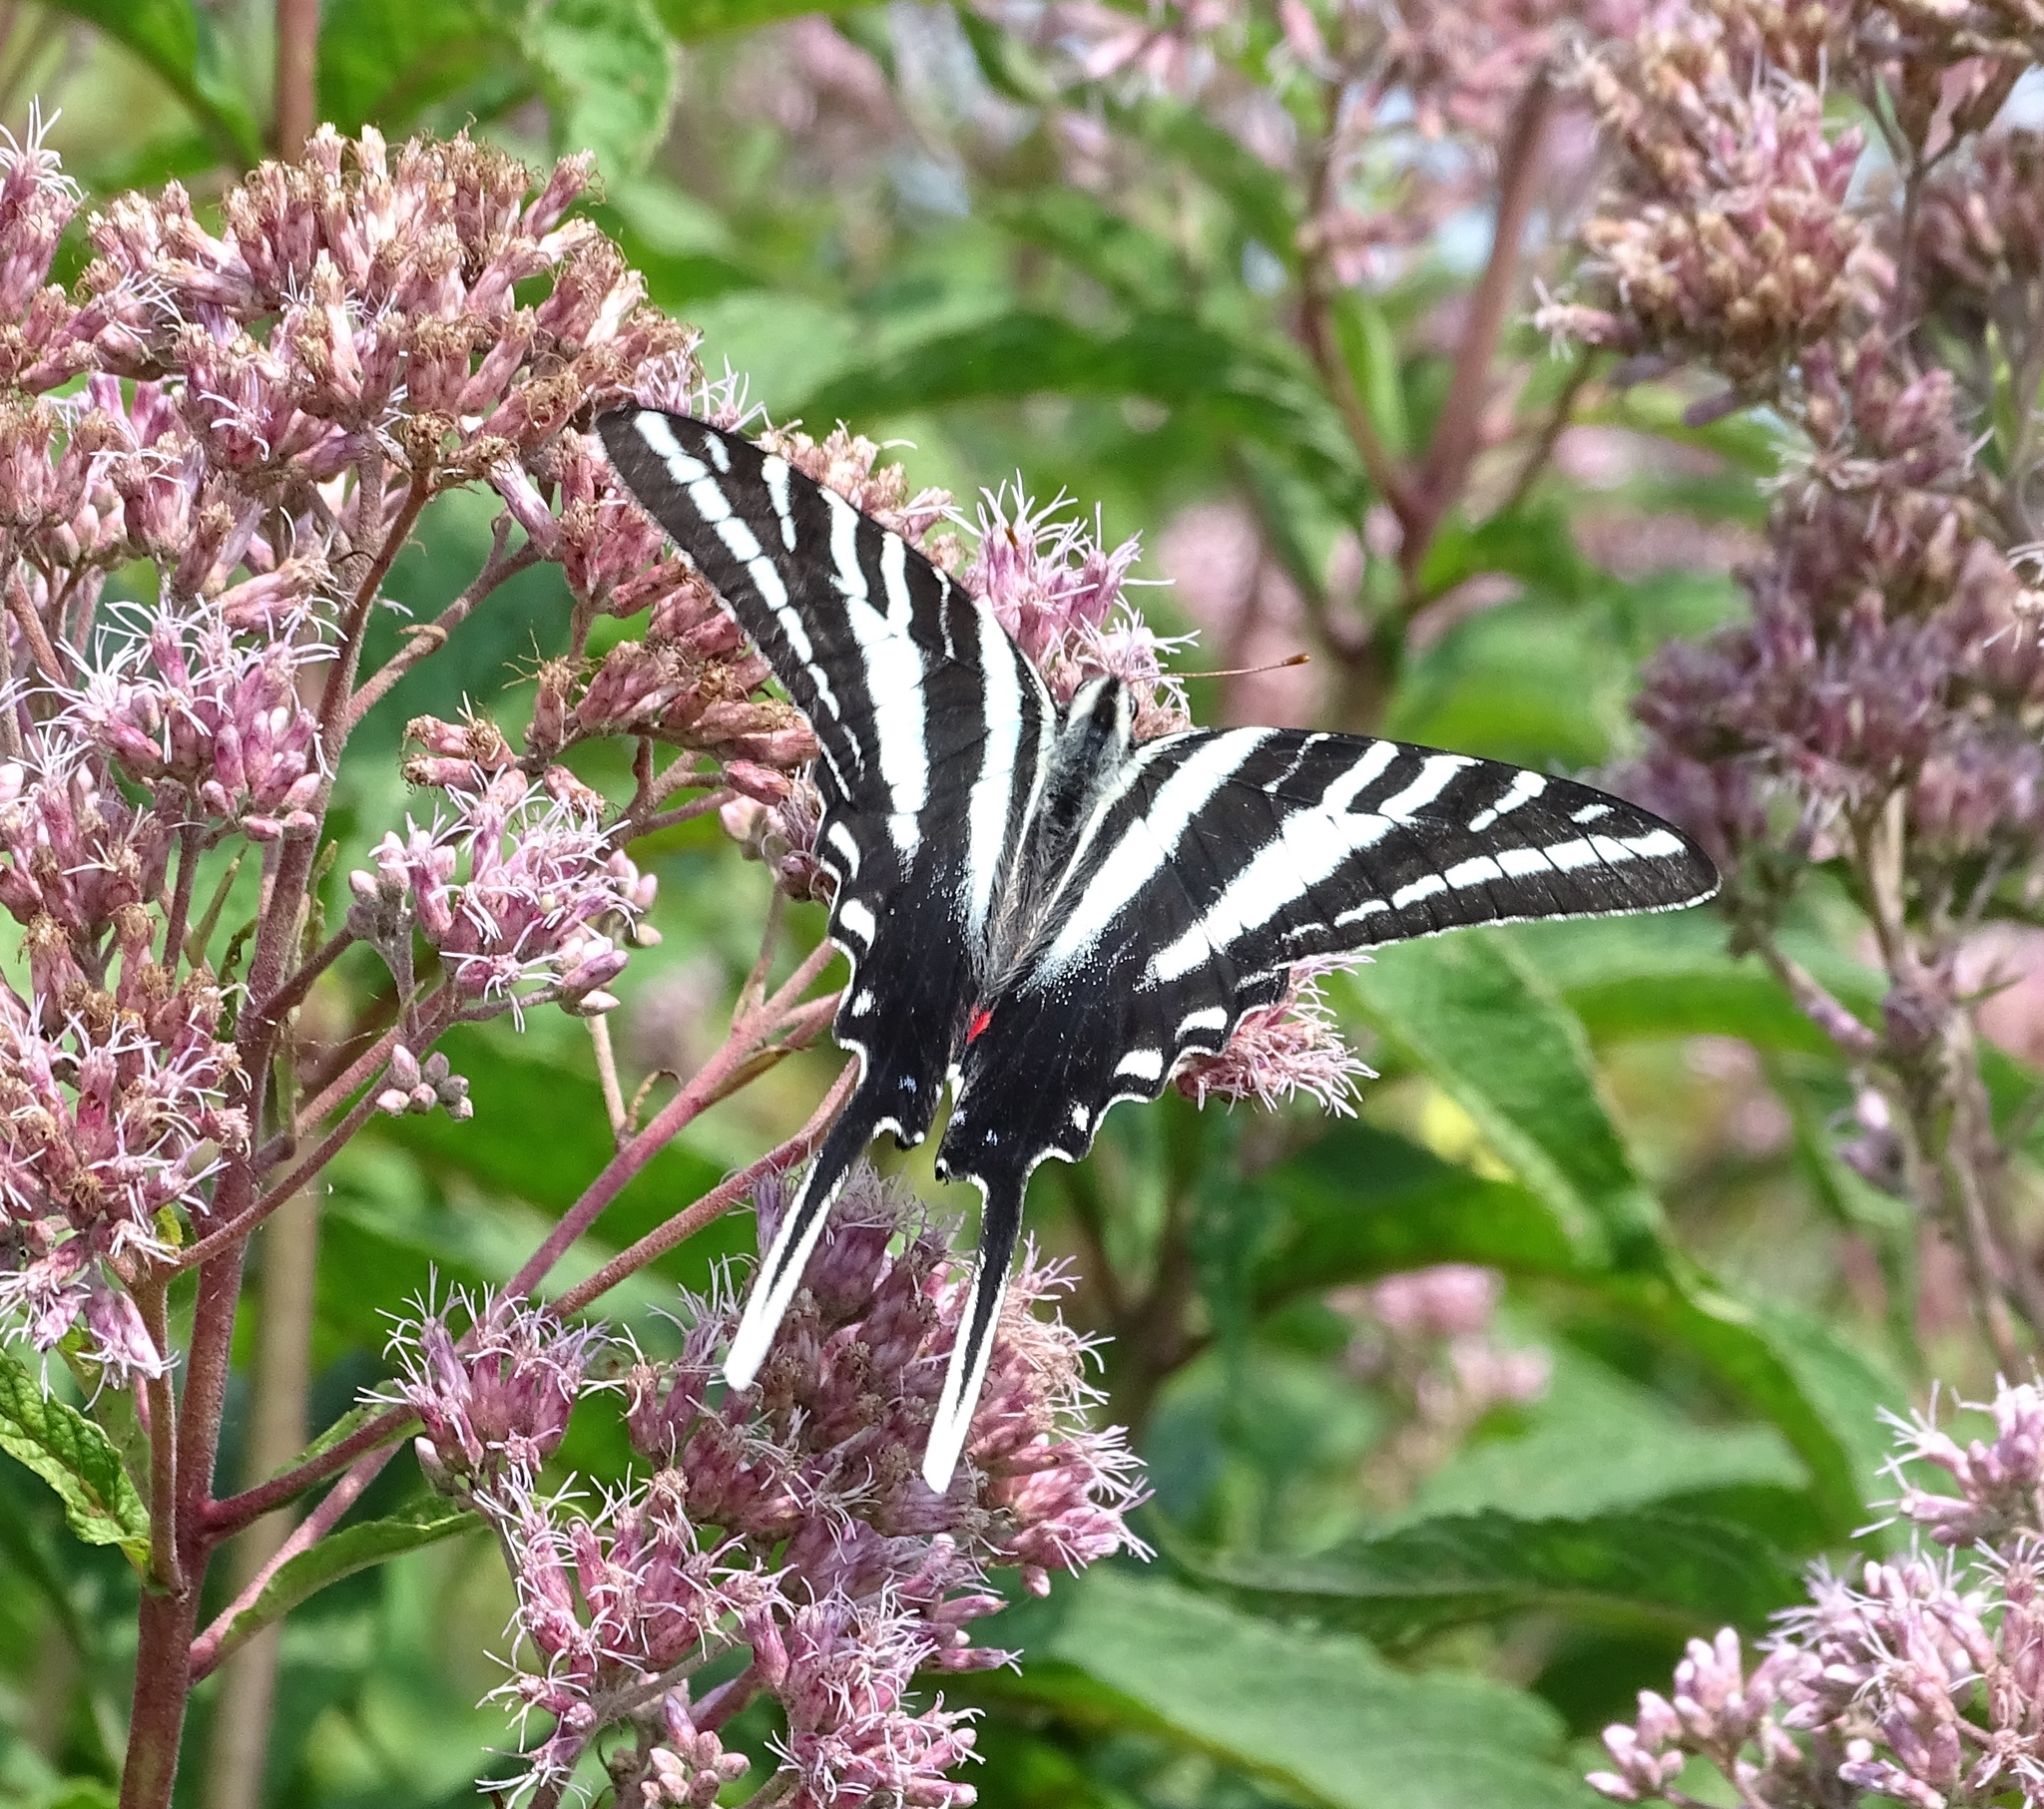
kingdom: Animalia
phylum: Arthropoda
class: Insecta
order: Lepidoptera
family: Papilionidae
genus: Protographium
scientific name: Protographium marcellus
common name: Zebra swallowtail
